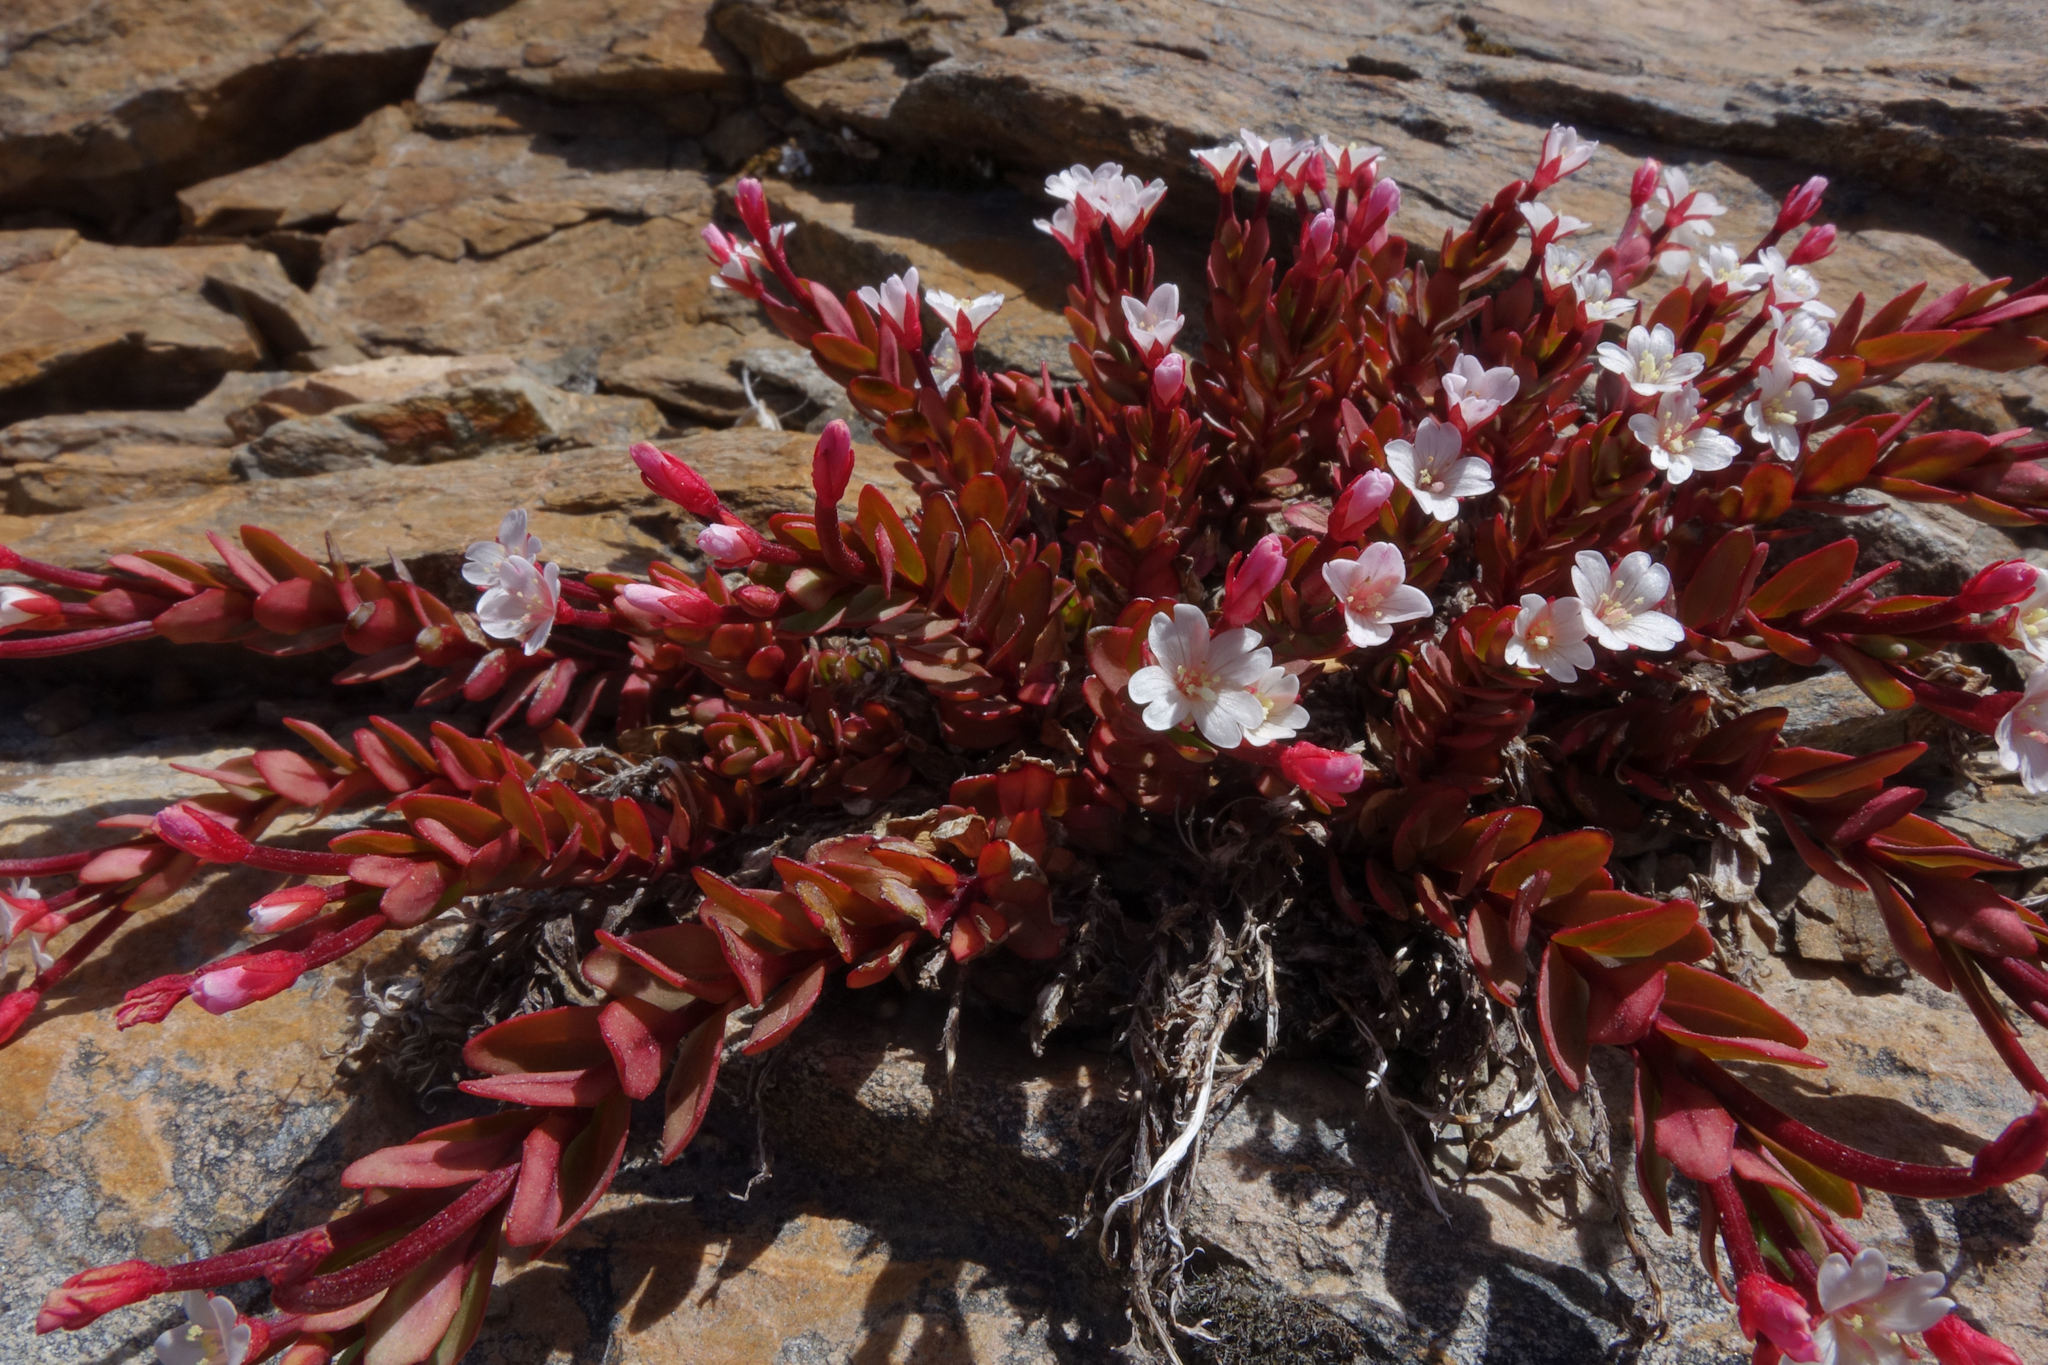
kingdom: Plantae
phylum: Tracheophyta
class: Magnoliopsida
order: Myrtales
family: Onagraceae
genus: Epilobium
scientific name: Epilobium porphyrium
